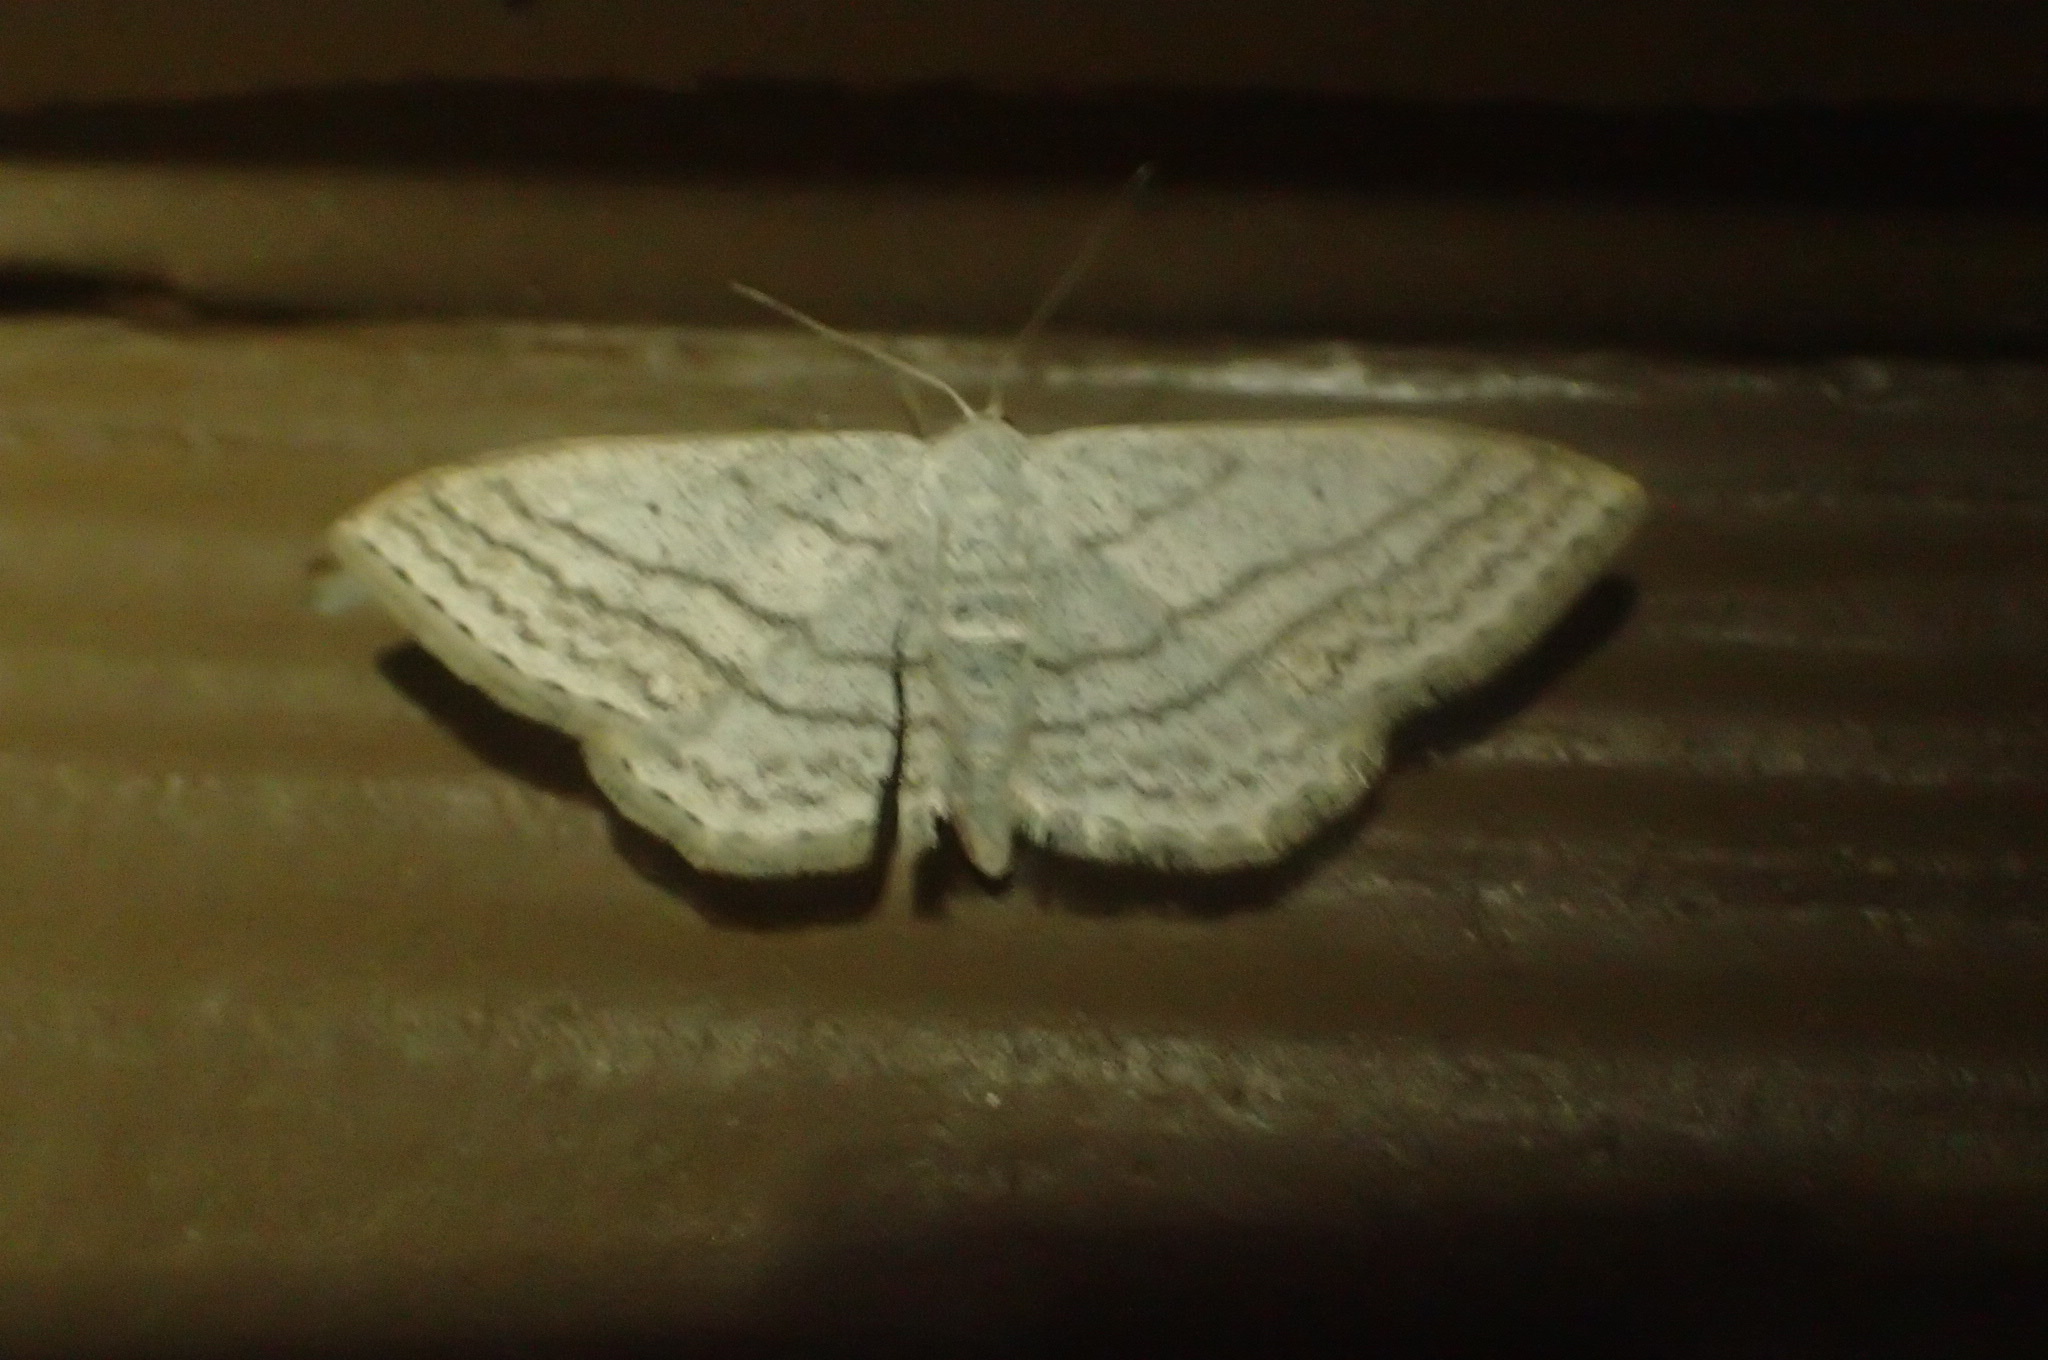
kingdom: Animalia
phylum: Arthropoda
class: Insecta
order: Lepidoptera
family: Geometridae
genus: Scopula
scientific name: Scopula ancellata
